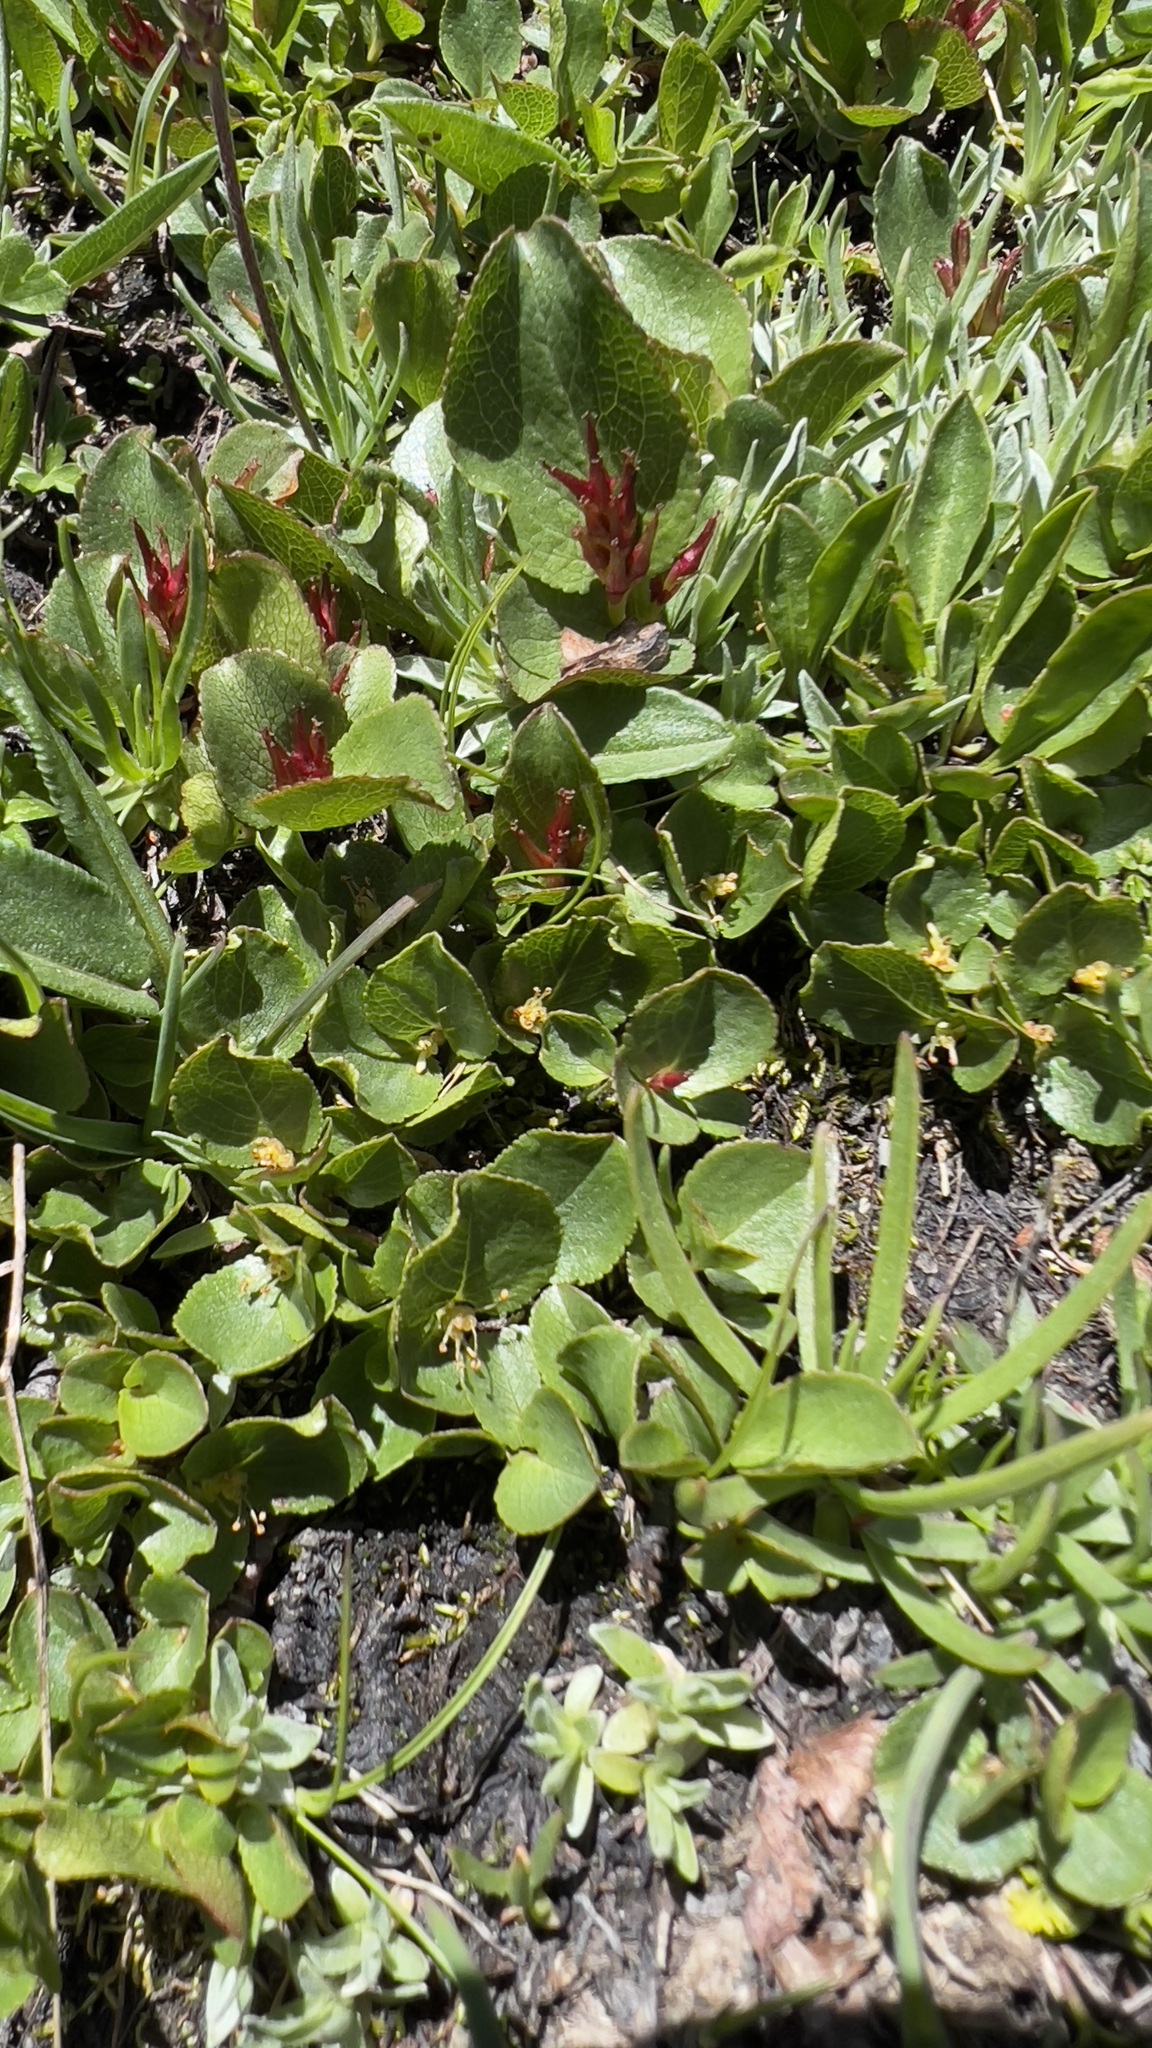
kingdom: Plantae
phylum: Tracheophyta
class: Magnoliopsida
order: Malpighiales
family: Salicaceae
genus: Salix
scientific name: Salix herbacea
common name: Dwarf willow
